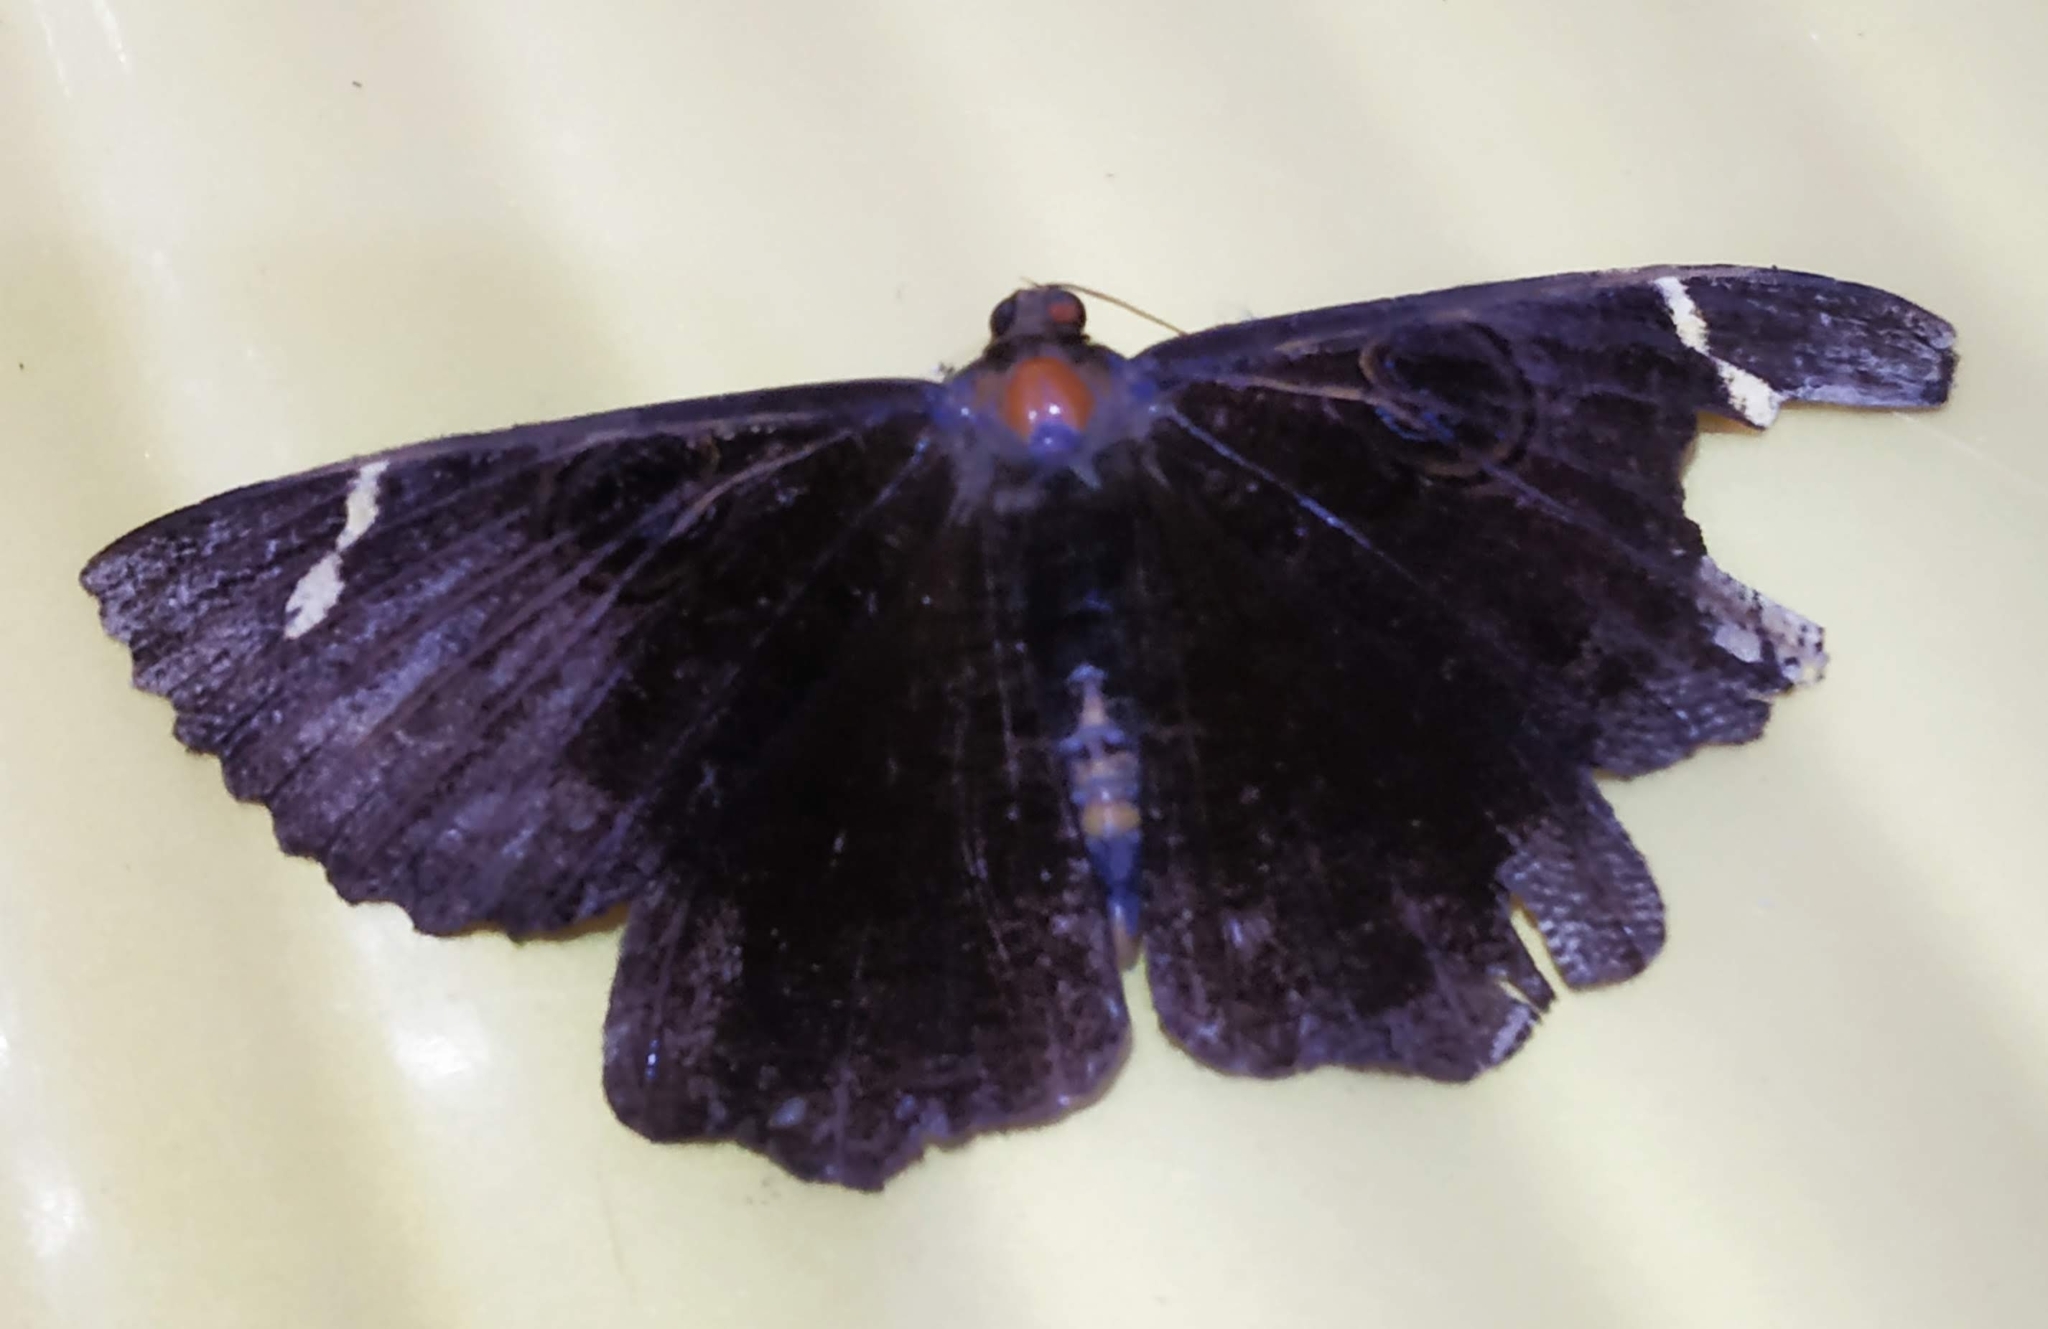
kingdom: Animalia
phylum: Arthropoda
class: Insecta
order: Lepidoptera
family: Erebidae
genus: Erebus
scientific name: Erebus hieroglyphica
